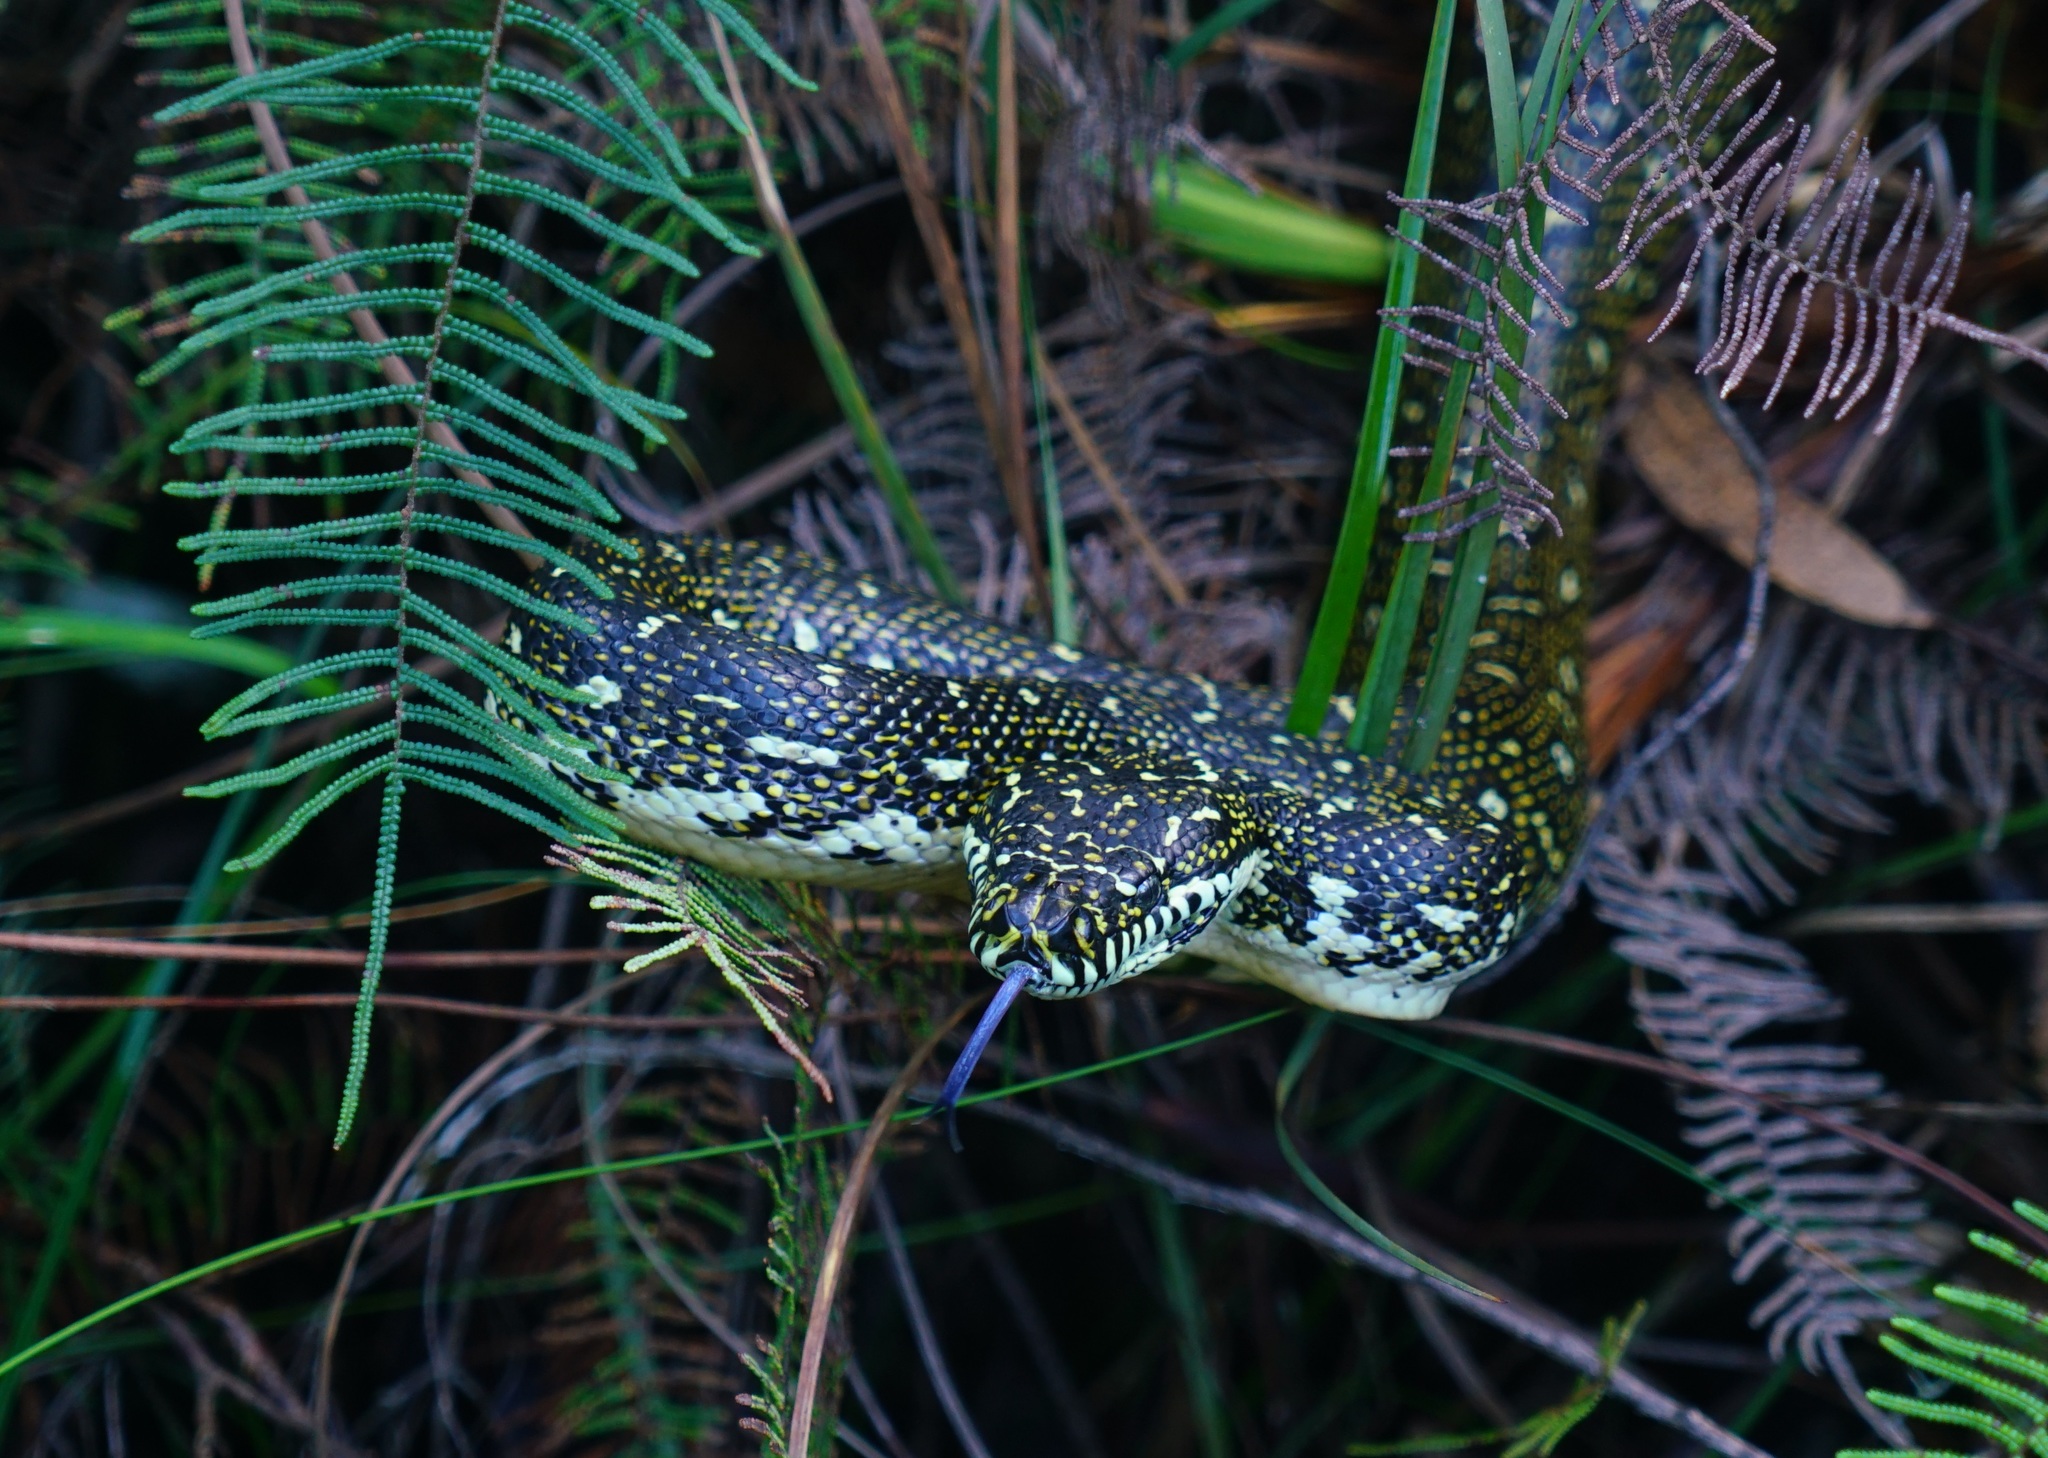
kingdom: Animalia
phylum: Chordata
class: Squamata
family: Pythonidae
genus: Morelia
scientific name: Morelia spilota
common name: Carpet python
